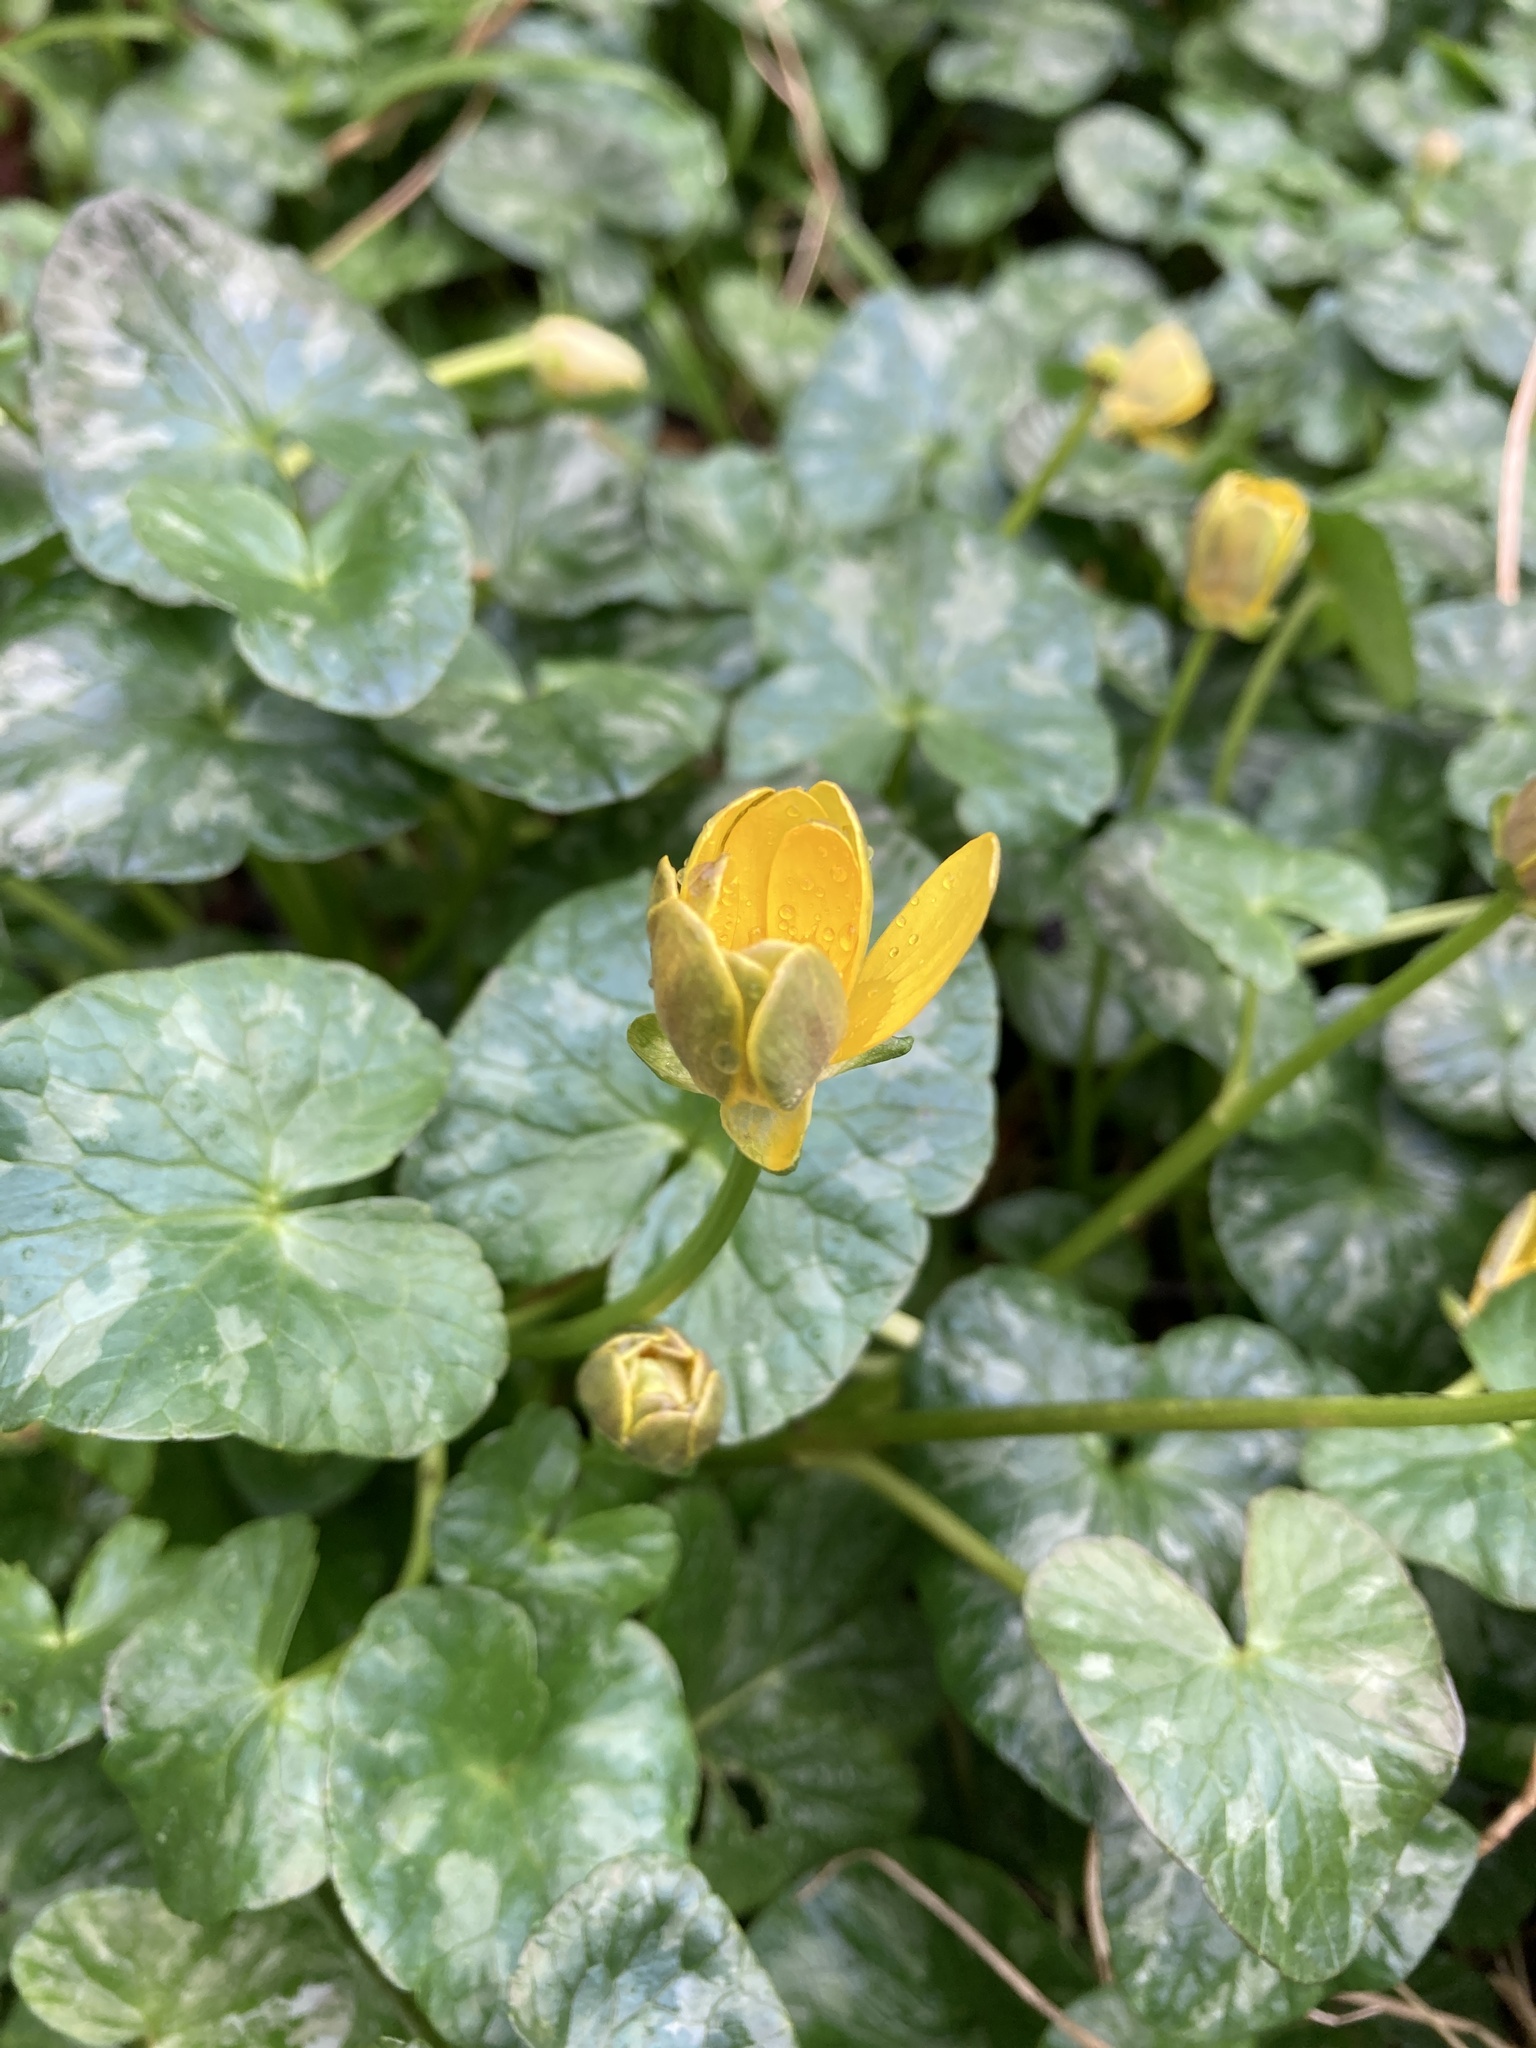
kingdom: Plantae
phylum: Tracheophyta
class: Magnoliopsida
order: Ranunculales
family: Ranunculaceae
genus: Ficaria
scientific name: Ficaria verna
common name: Lesser celandine
